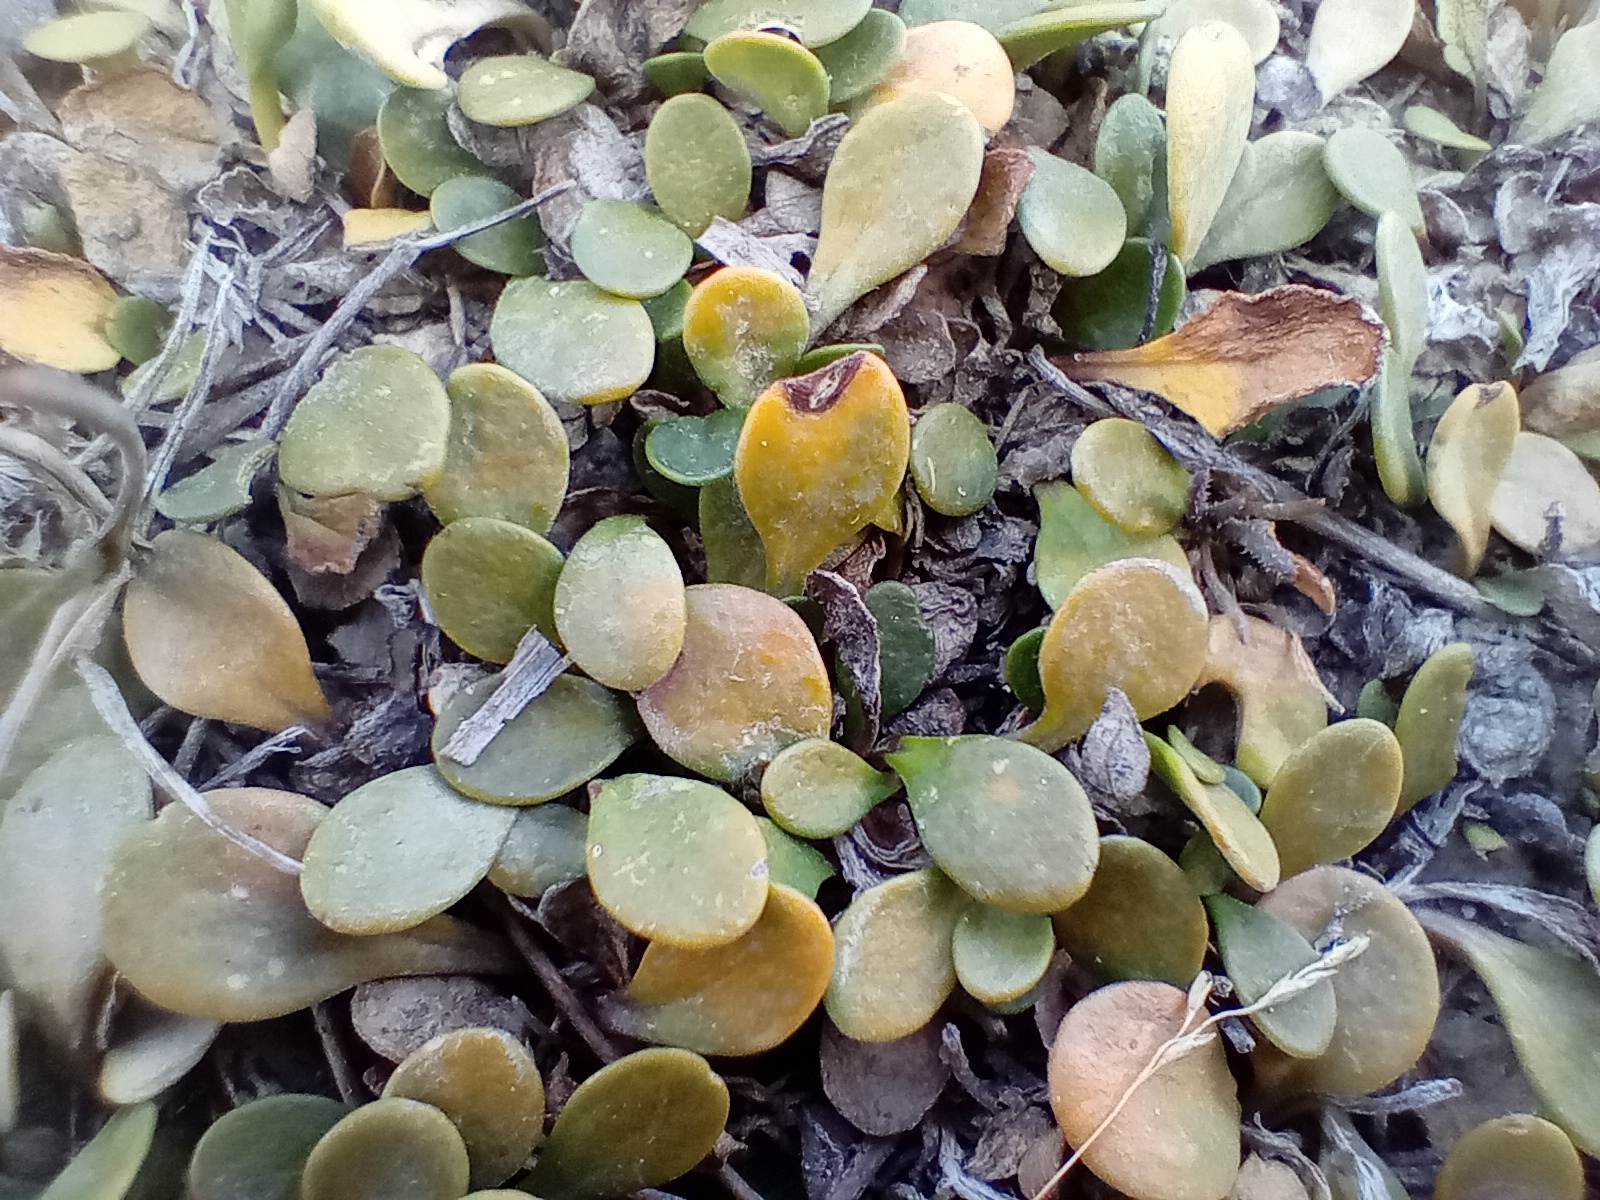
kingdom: Plantae
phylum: Tracheophyta
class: Magnoliopsida
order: Asterales
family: Goodeniaceae
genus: Goodenia
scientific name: Goodenia radicans
